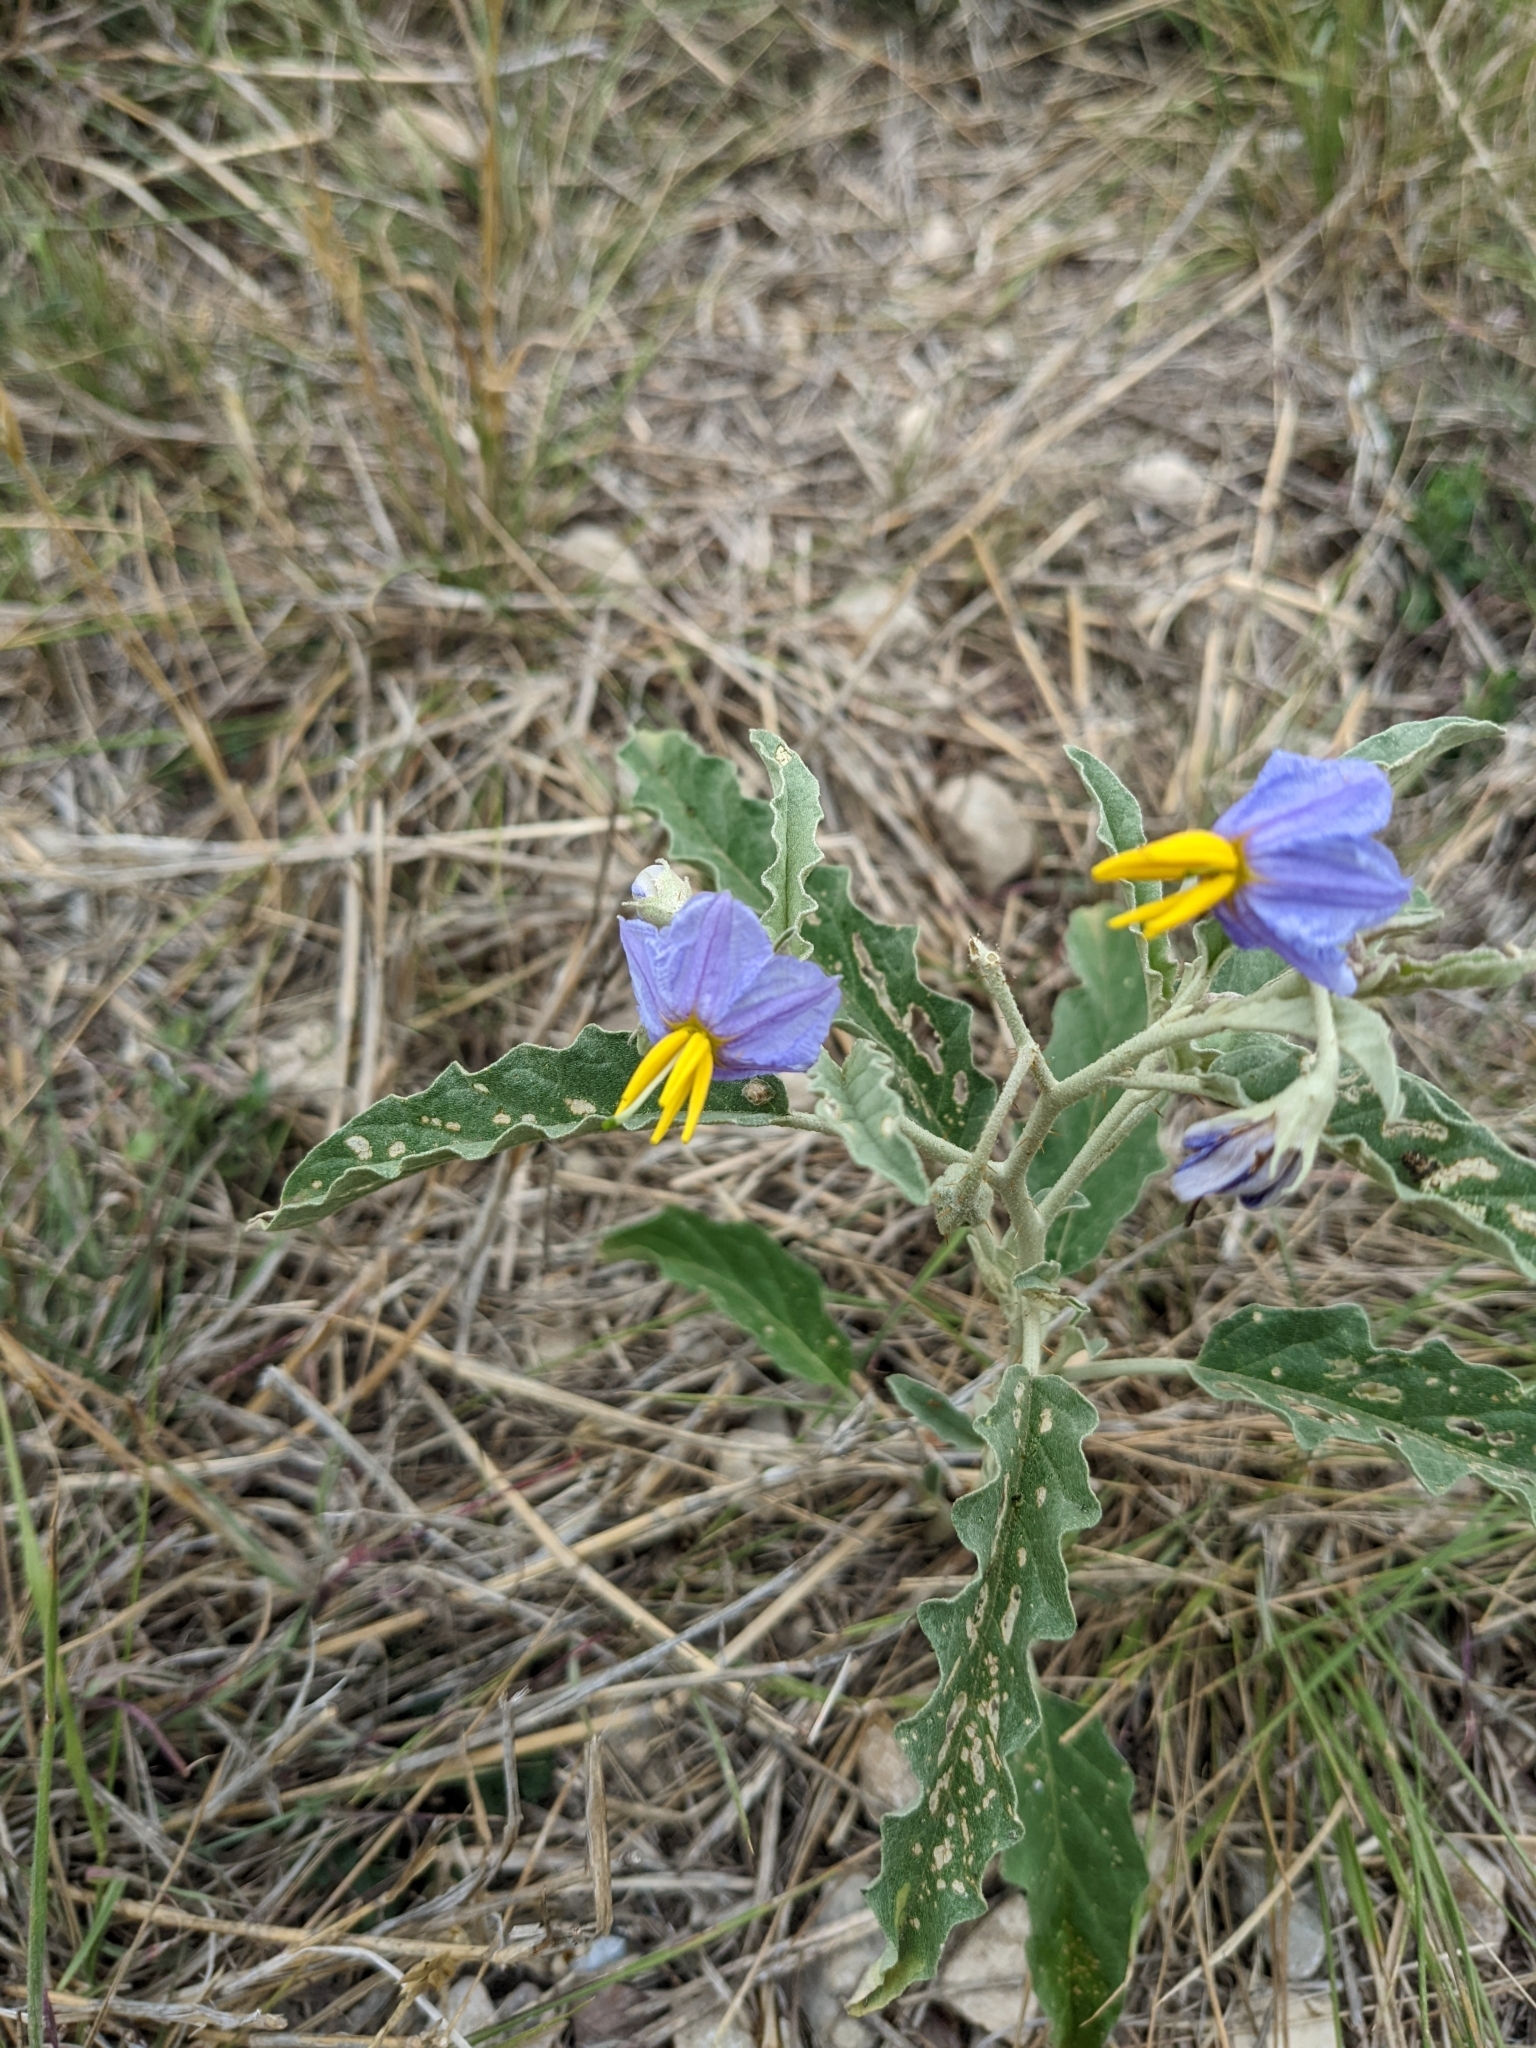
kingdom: Plantae
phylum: Tracheophyta
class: Magnoliopsida
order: Solanales
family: Solanaceae
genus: Solanum
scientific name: Solanum elaeagnifolium
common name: Silverleaf nightshade
